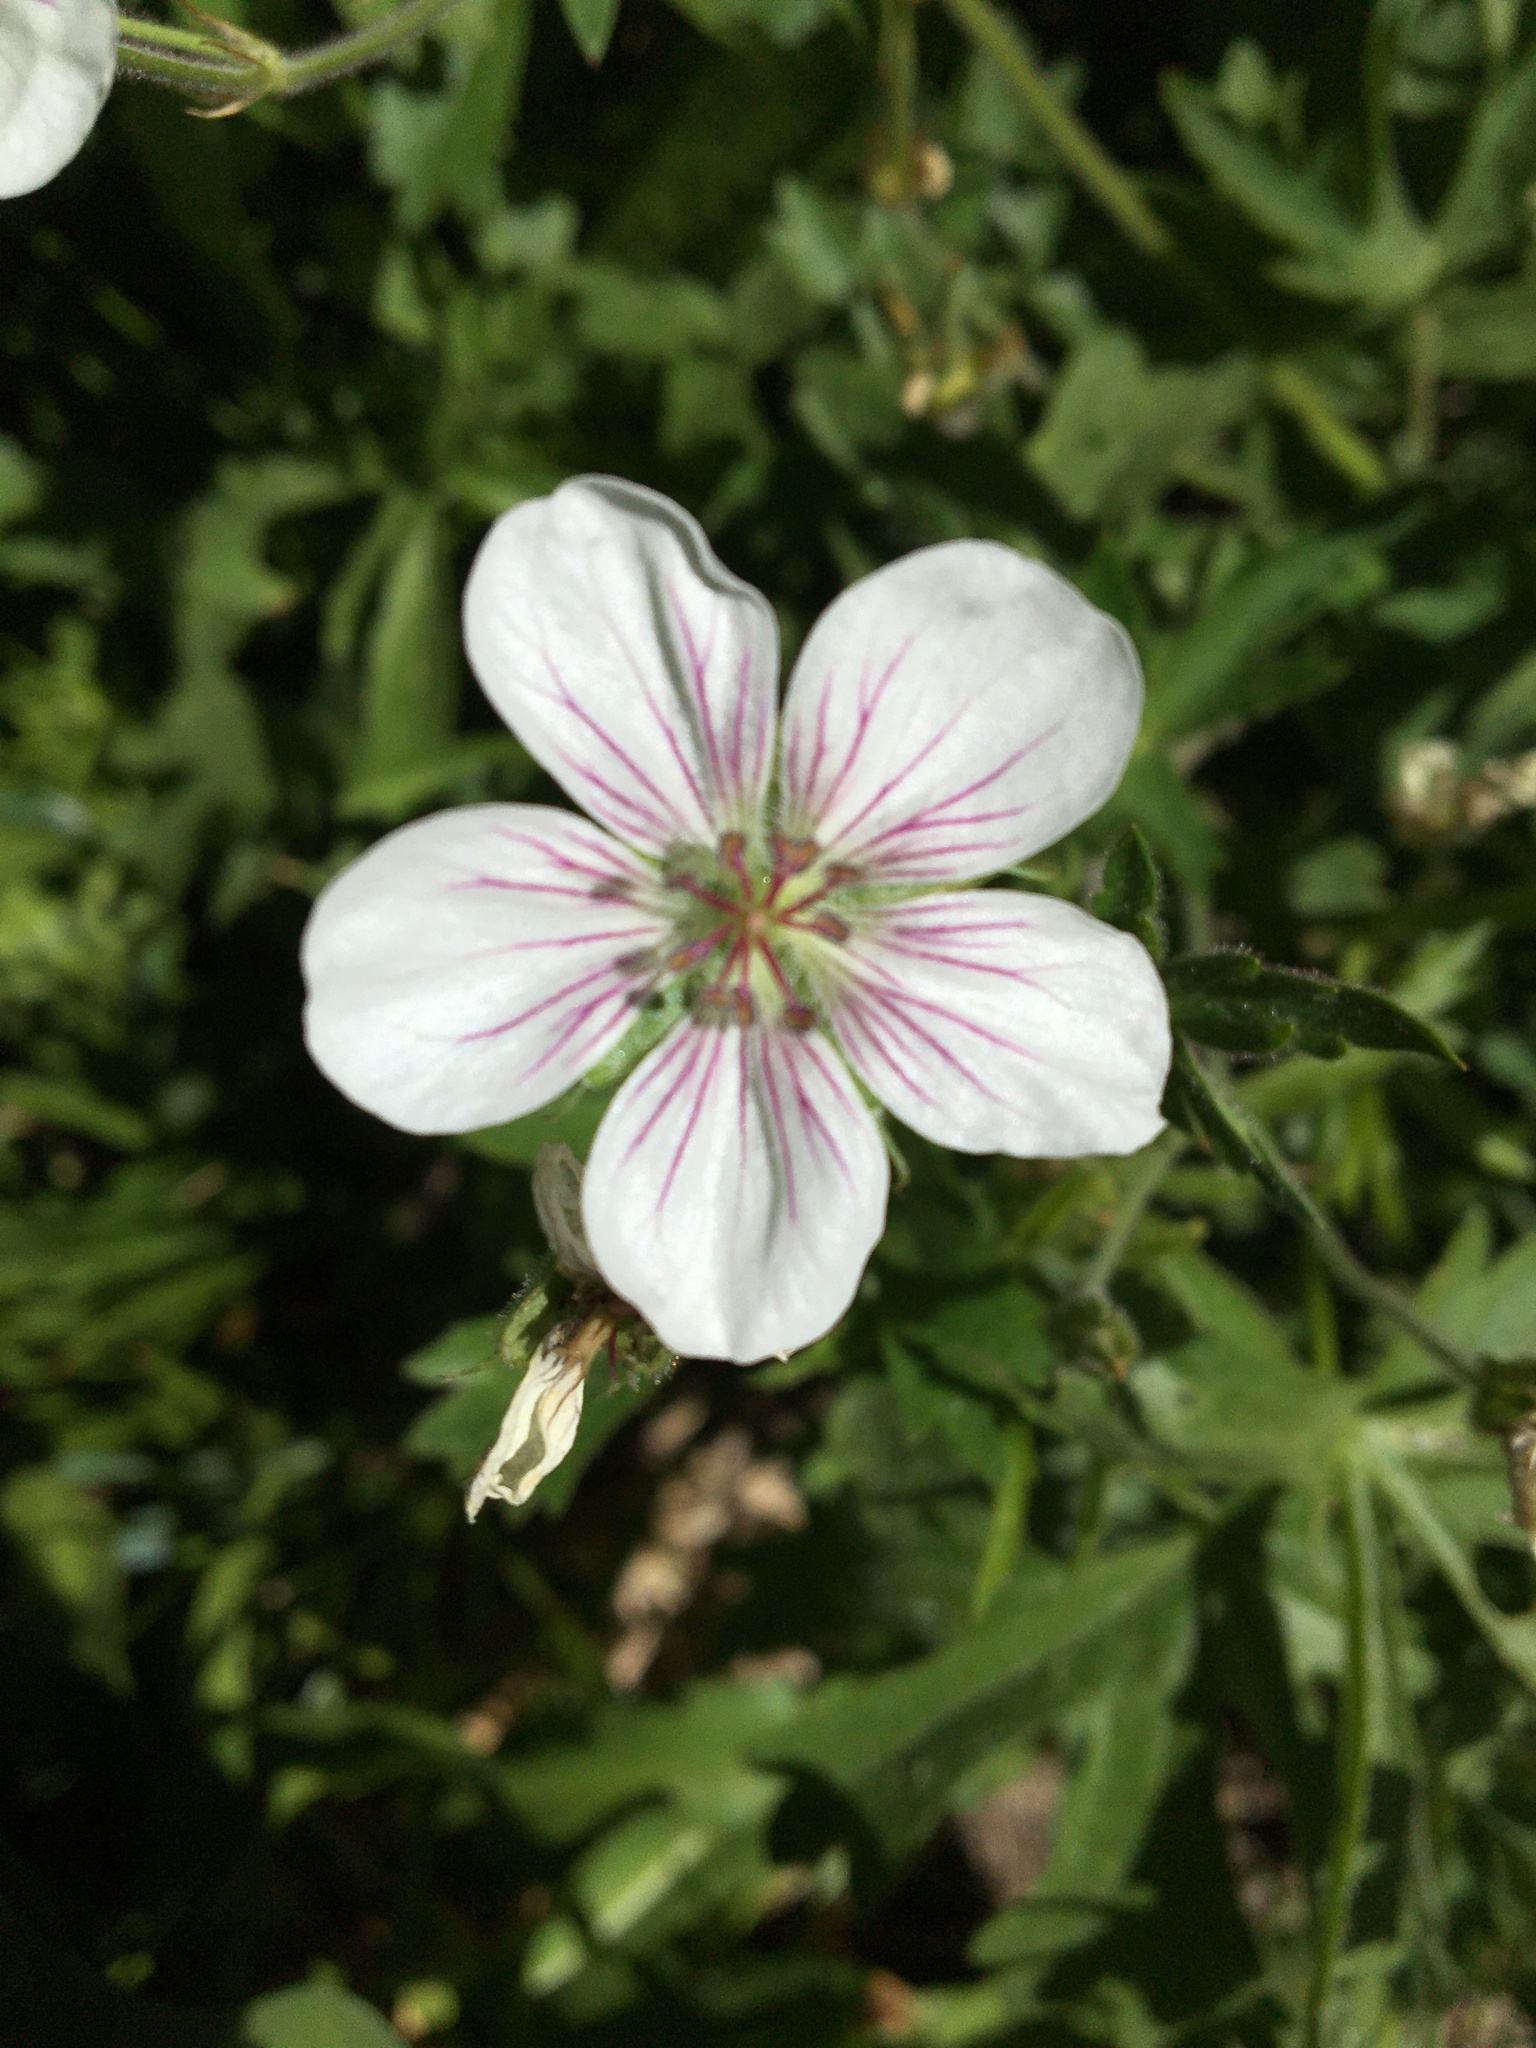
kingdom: Plantae
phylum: Tracheophyta
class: Magnoliopsida
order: Geraniales
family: Geraniaceae
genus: Geranium
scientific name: Geranium richardsonii
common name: Richardson's crane's-bill
